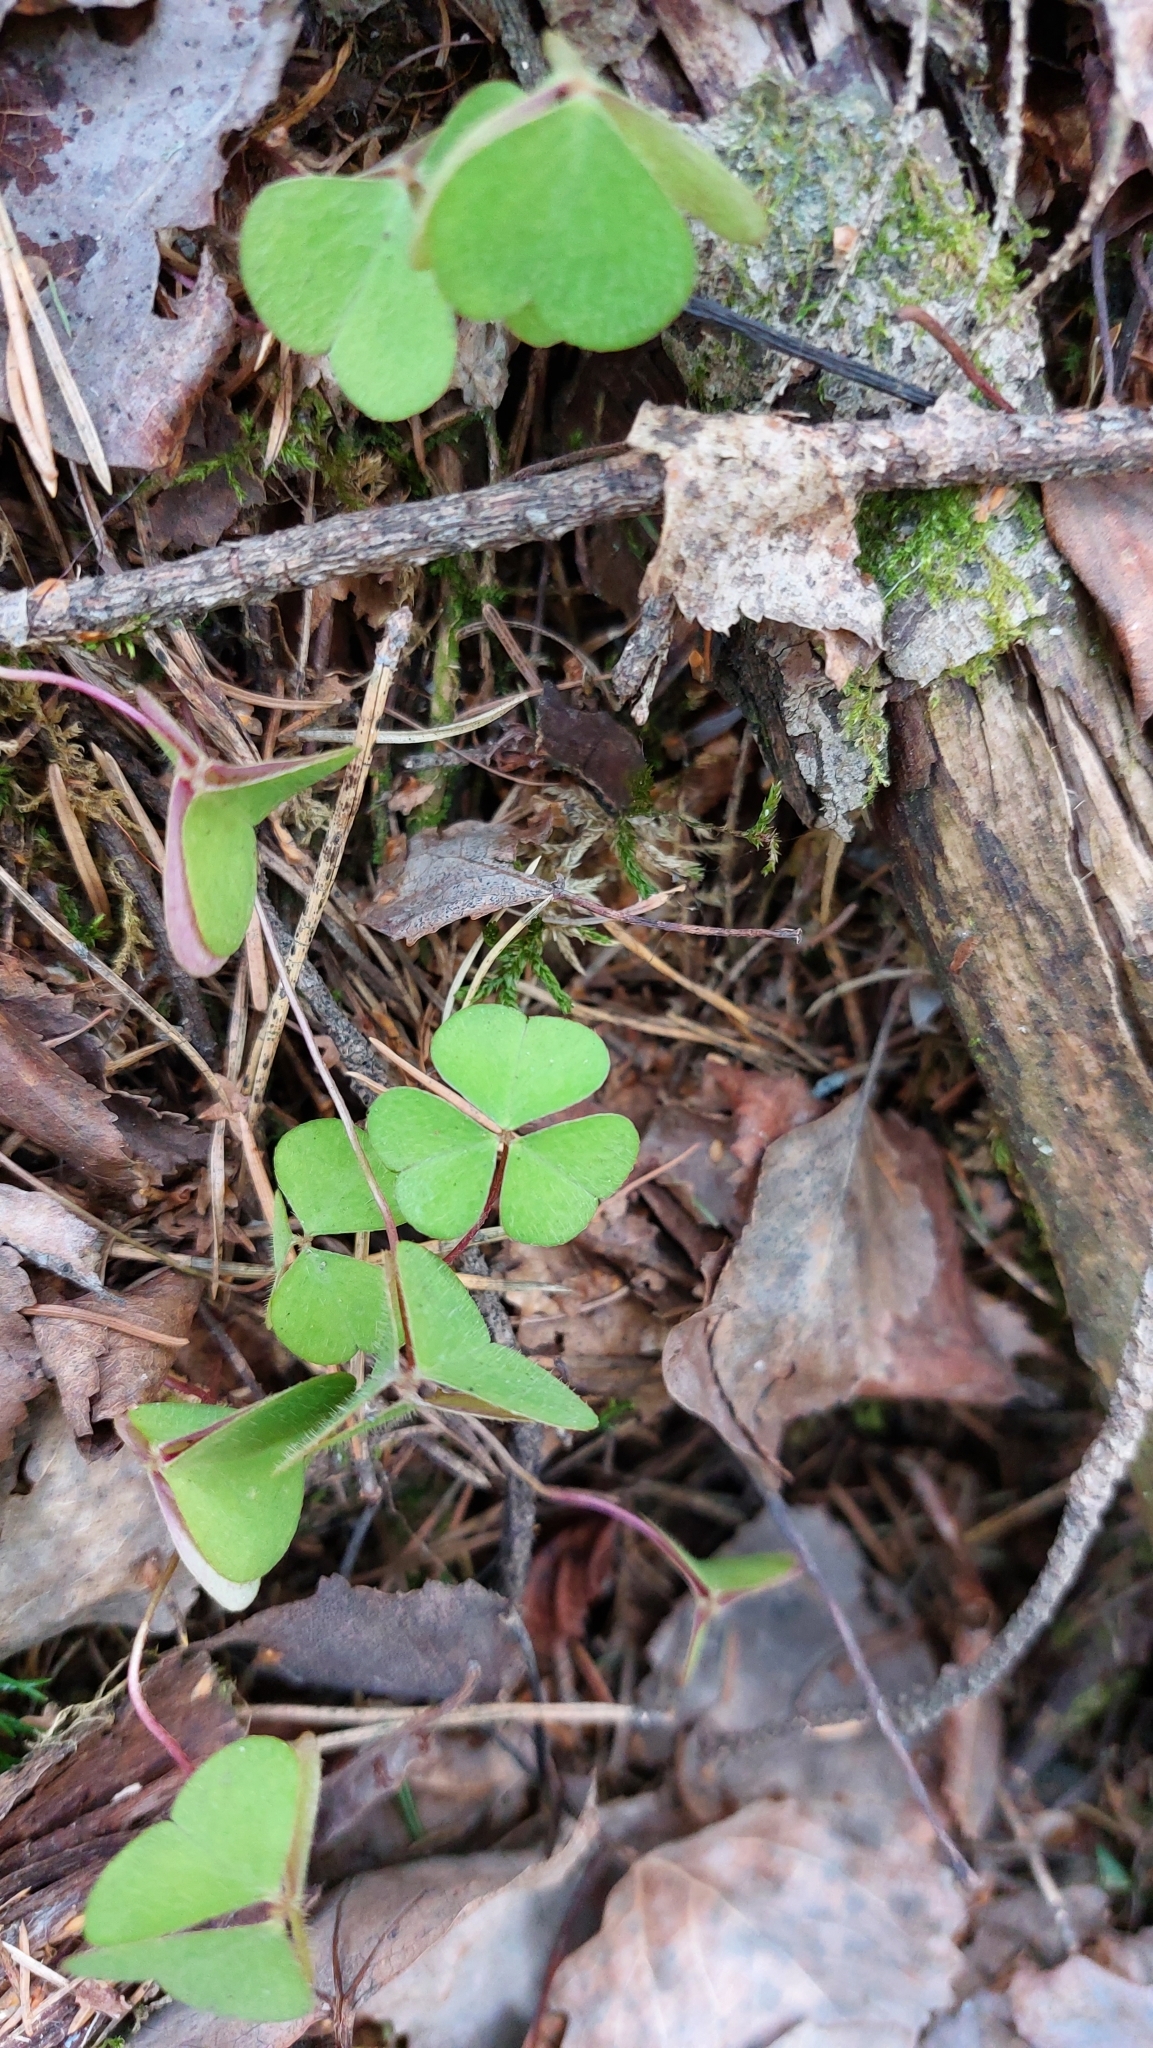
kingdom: Plantae
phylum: Tracheophyta
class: Magnoliopsida
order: Oxalidales
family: Oxalidaceae
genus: Oxalis
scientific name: Oxalis acetosella
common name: Wood-sorrel
